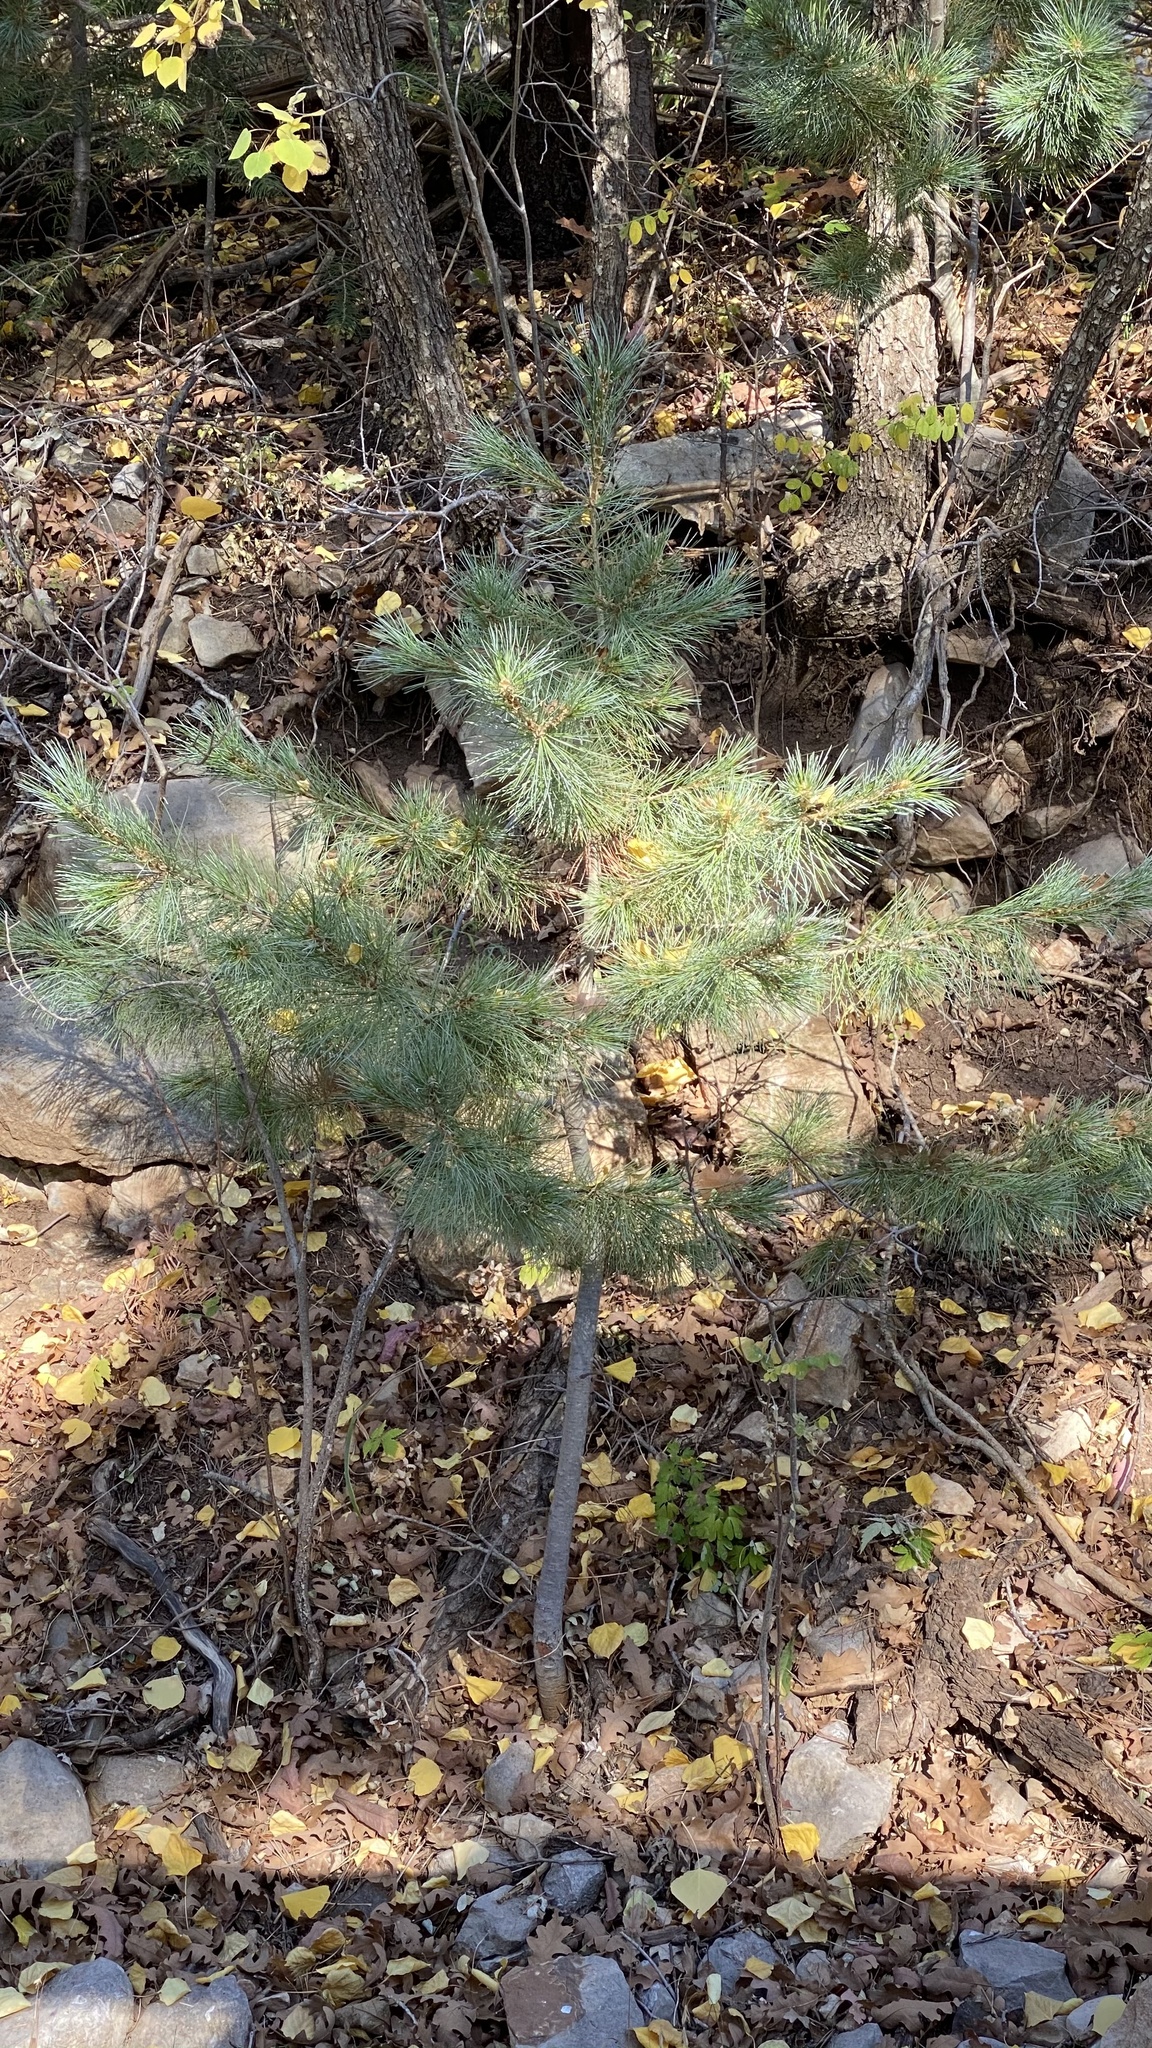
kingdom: Plantae
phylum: Tracheophyta
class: Pinopsida
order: Pinales
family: Pinaceae
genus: Pinus
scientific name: Pinus strobiformis
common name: Southwestern white pine
